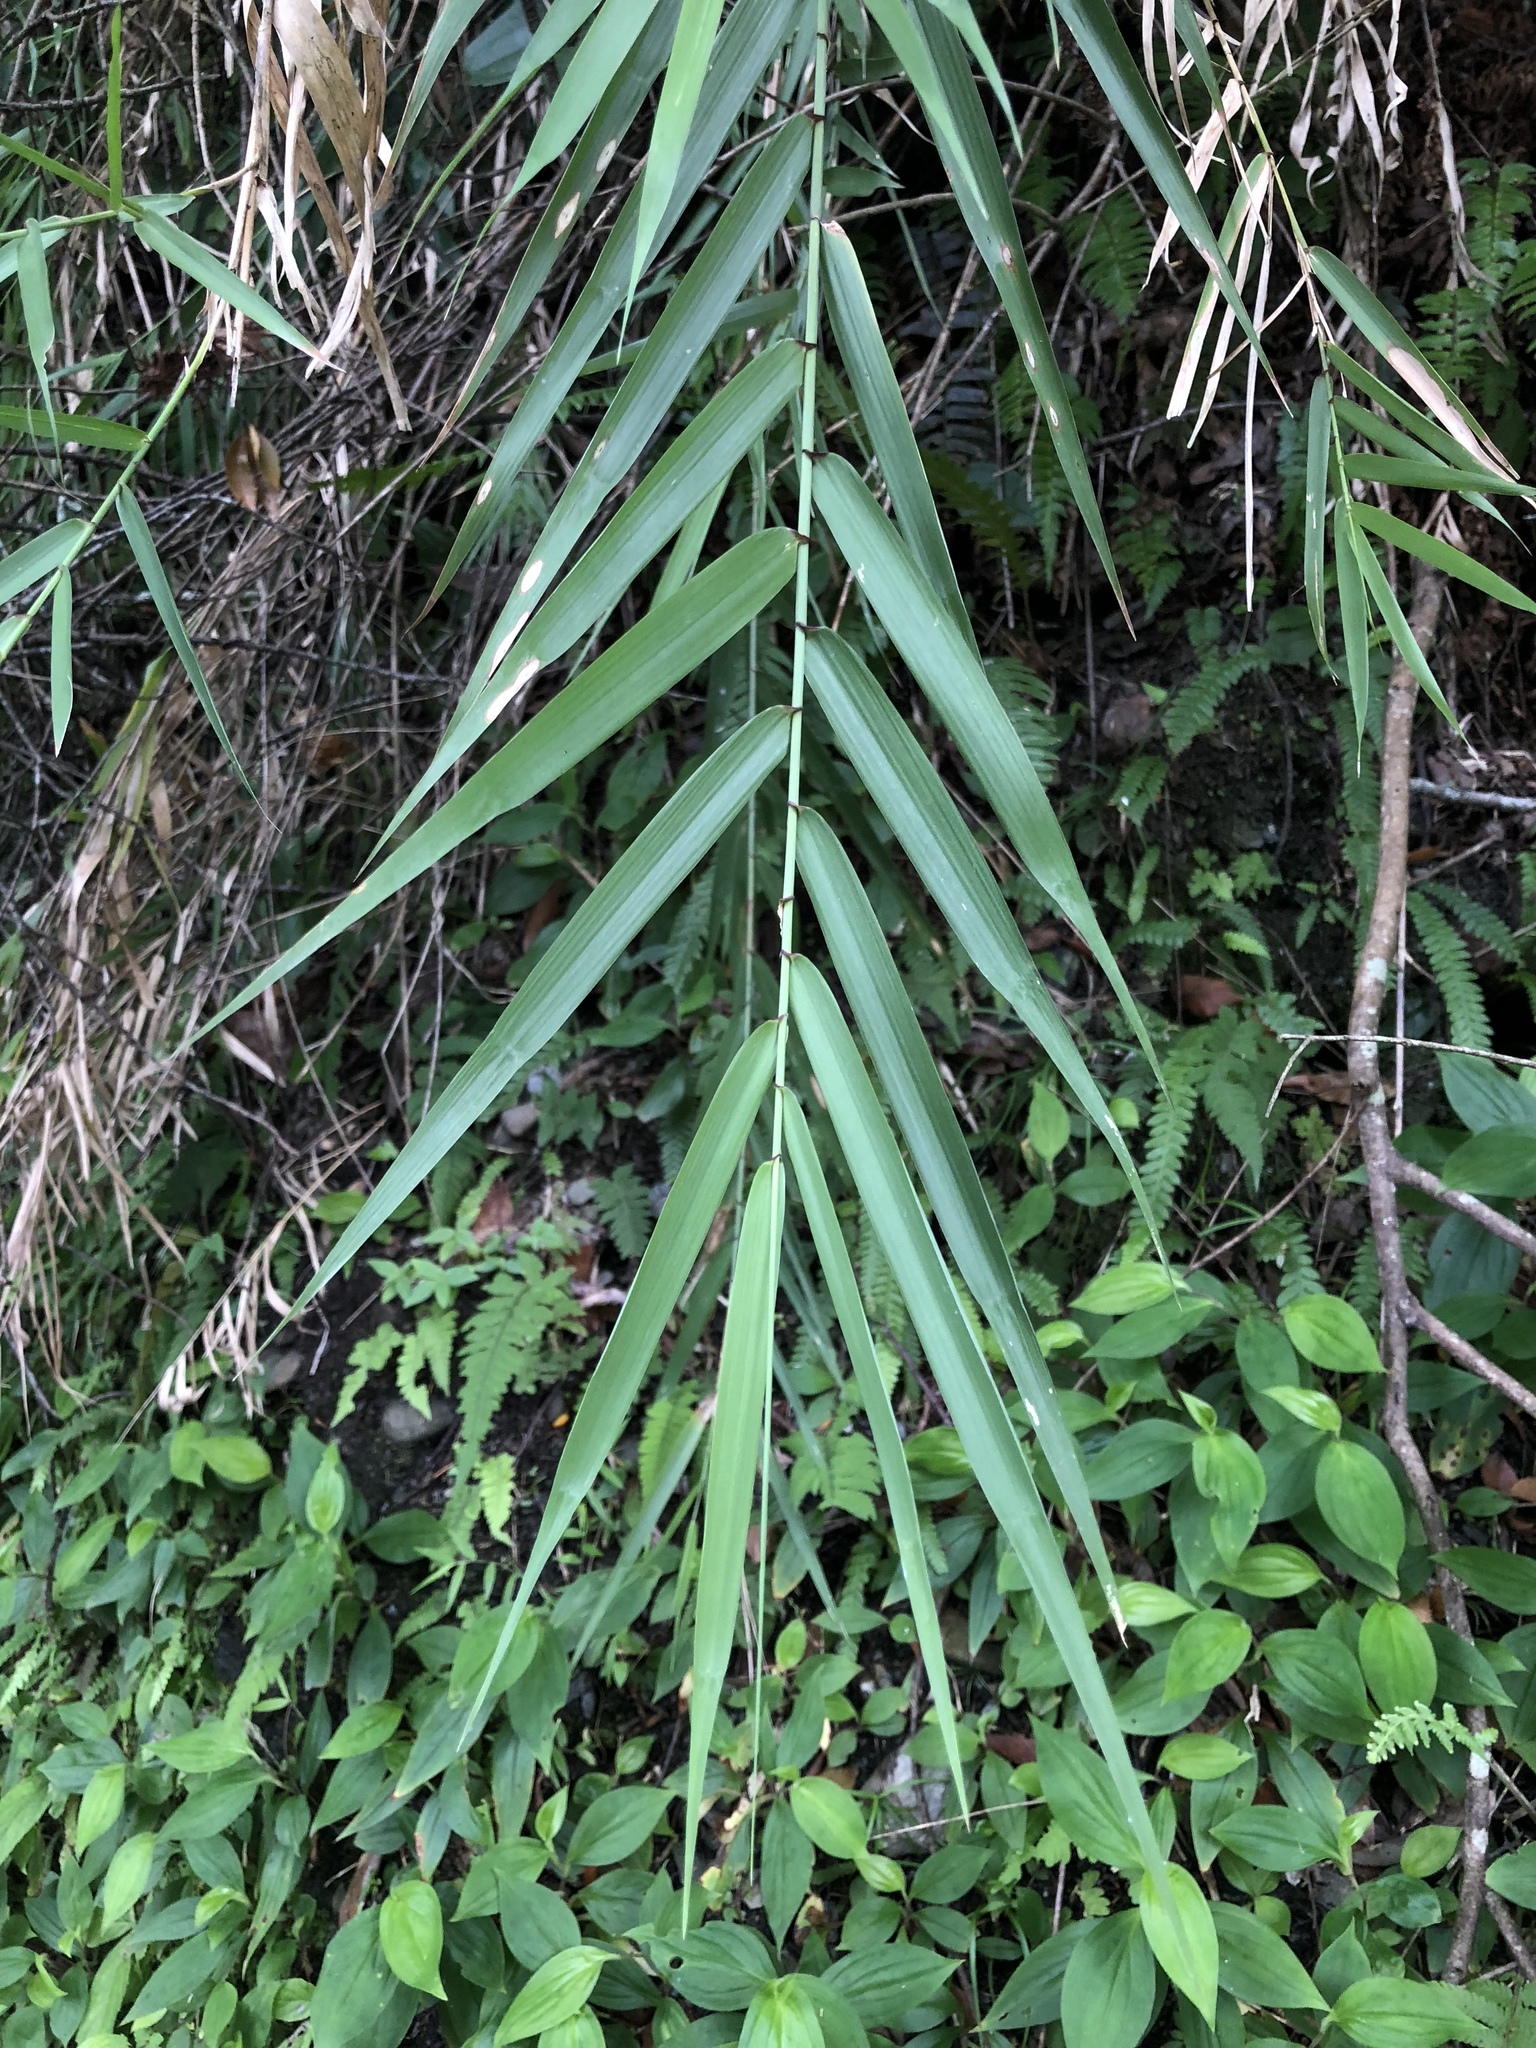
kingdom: Plantae
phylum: Tracheophyta
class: Liliopsida
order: Poales
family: Poaceae
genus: Arundo
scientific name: Arundo formosana
